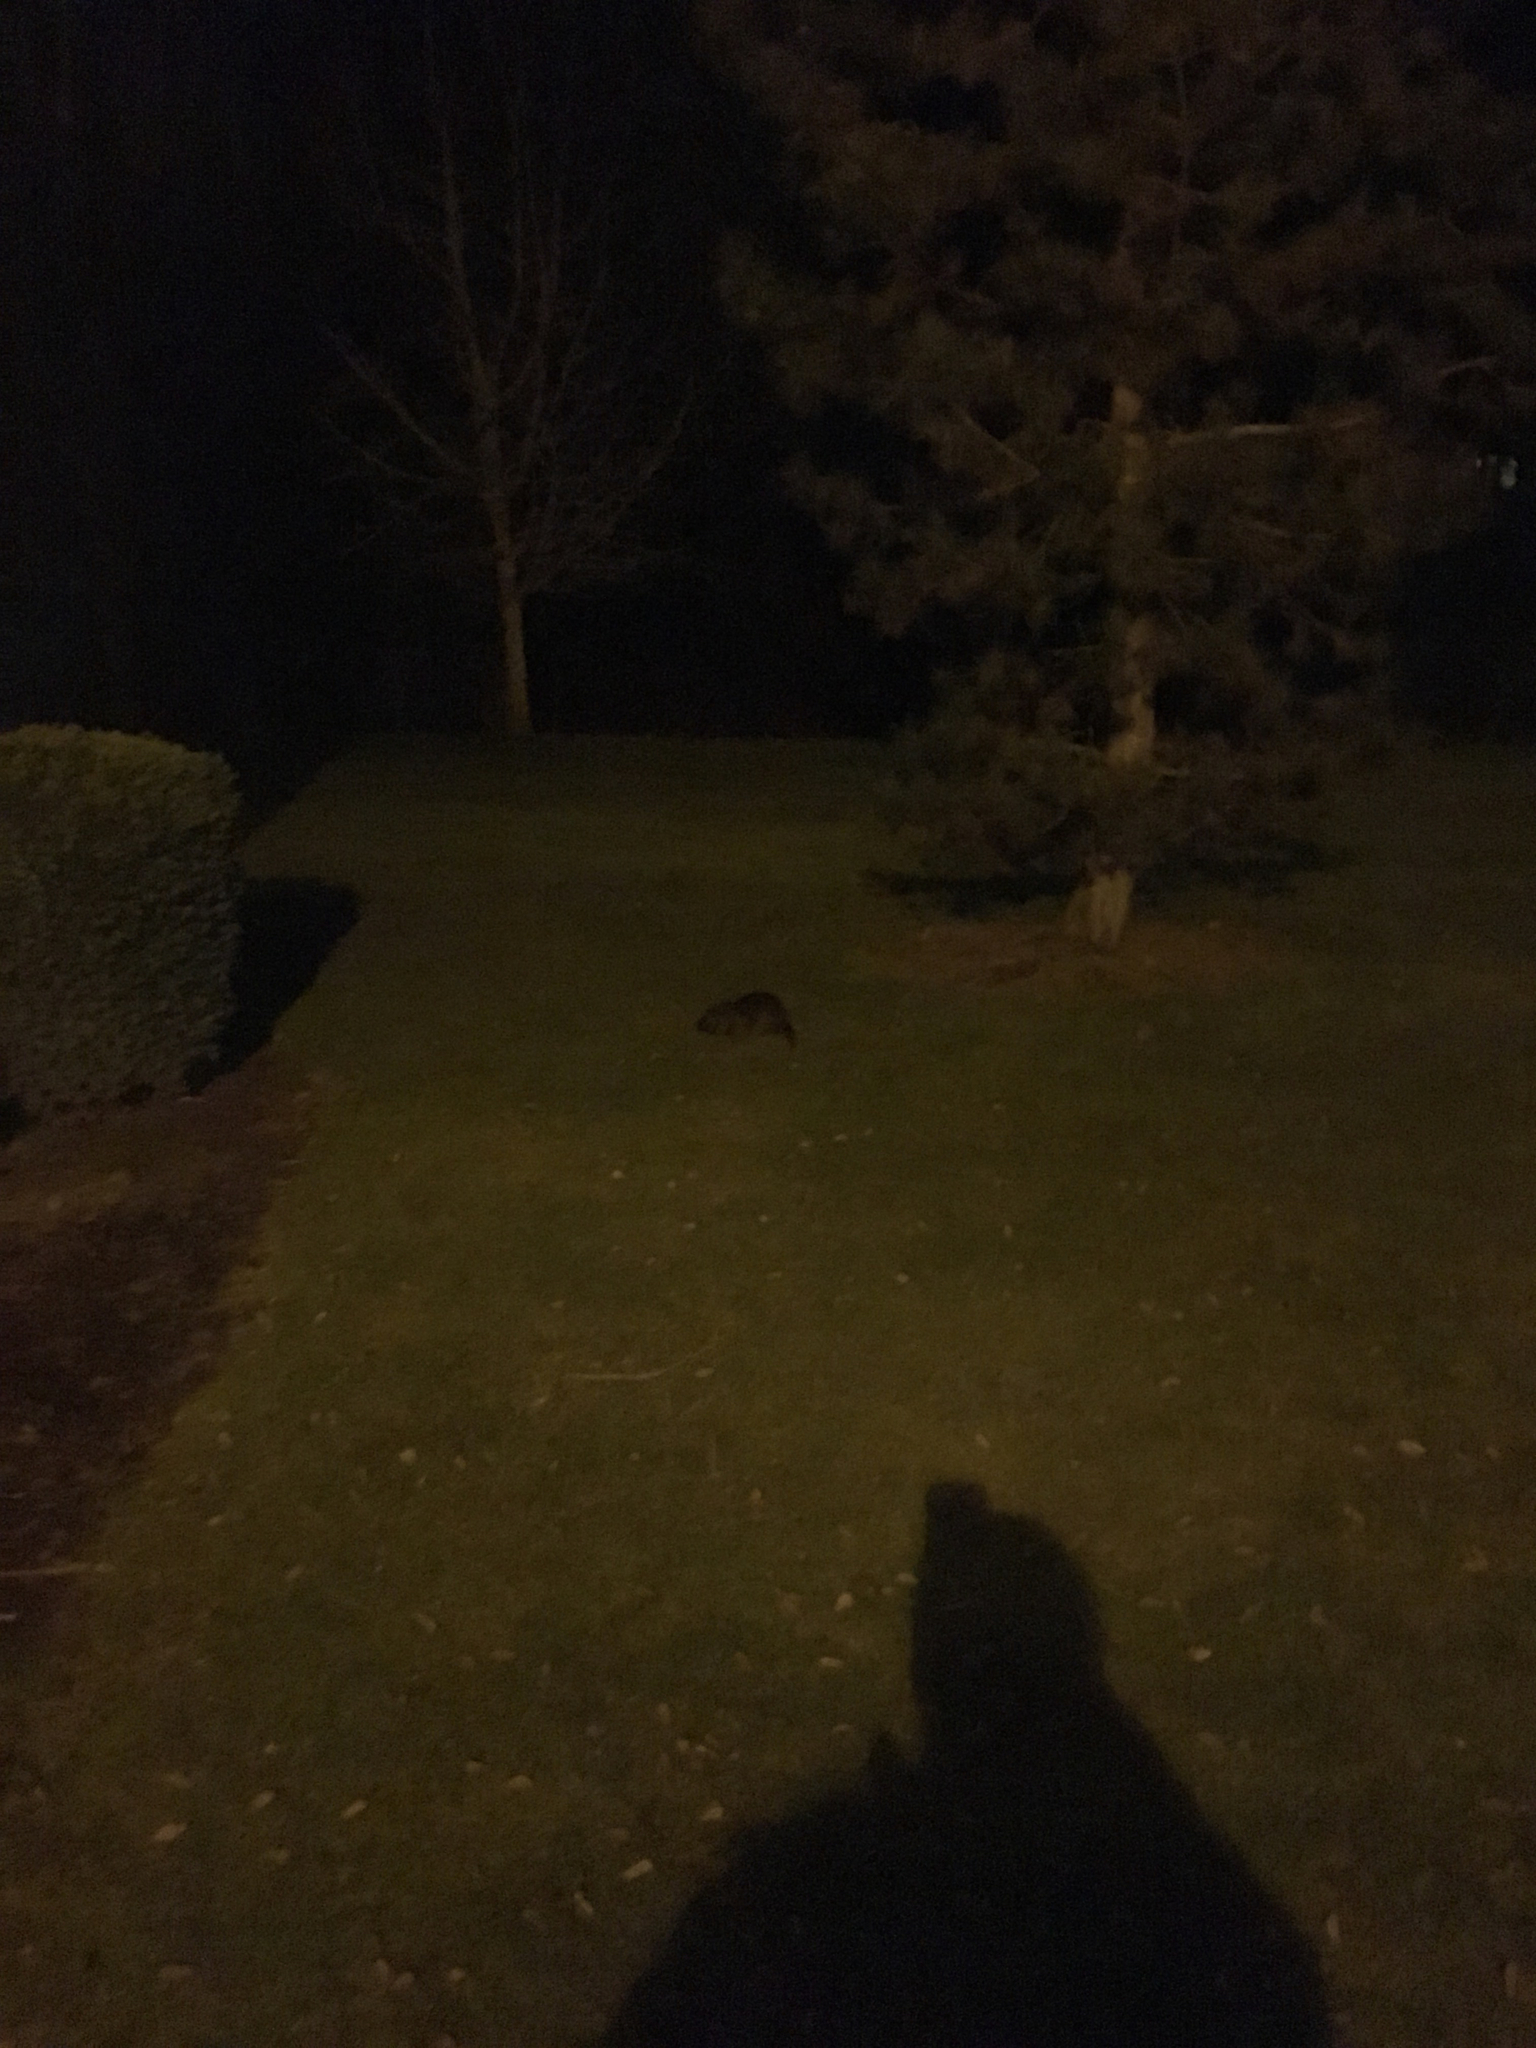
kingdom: Animalia
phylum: Chordata
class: Mammalia
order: Rodentia
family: Myocastoridae
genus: Myocastor
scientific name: Myocastor coypus
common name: Coypu
